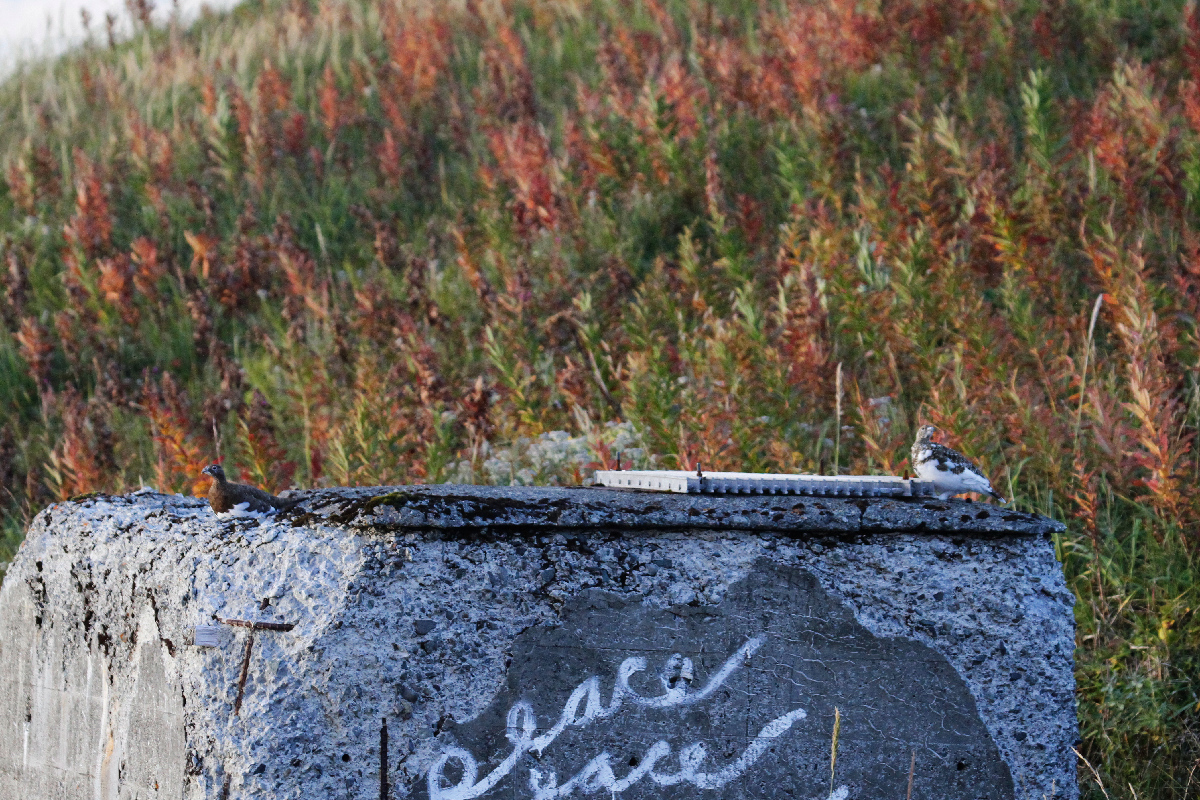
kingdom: Animalia
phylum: Chordata
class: Aves
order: Galliformes
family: Phasianidae
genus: Lagopus
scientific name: Lagopus muta
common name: Rock ptarmigan
